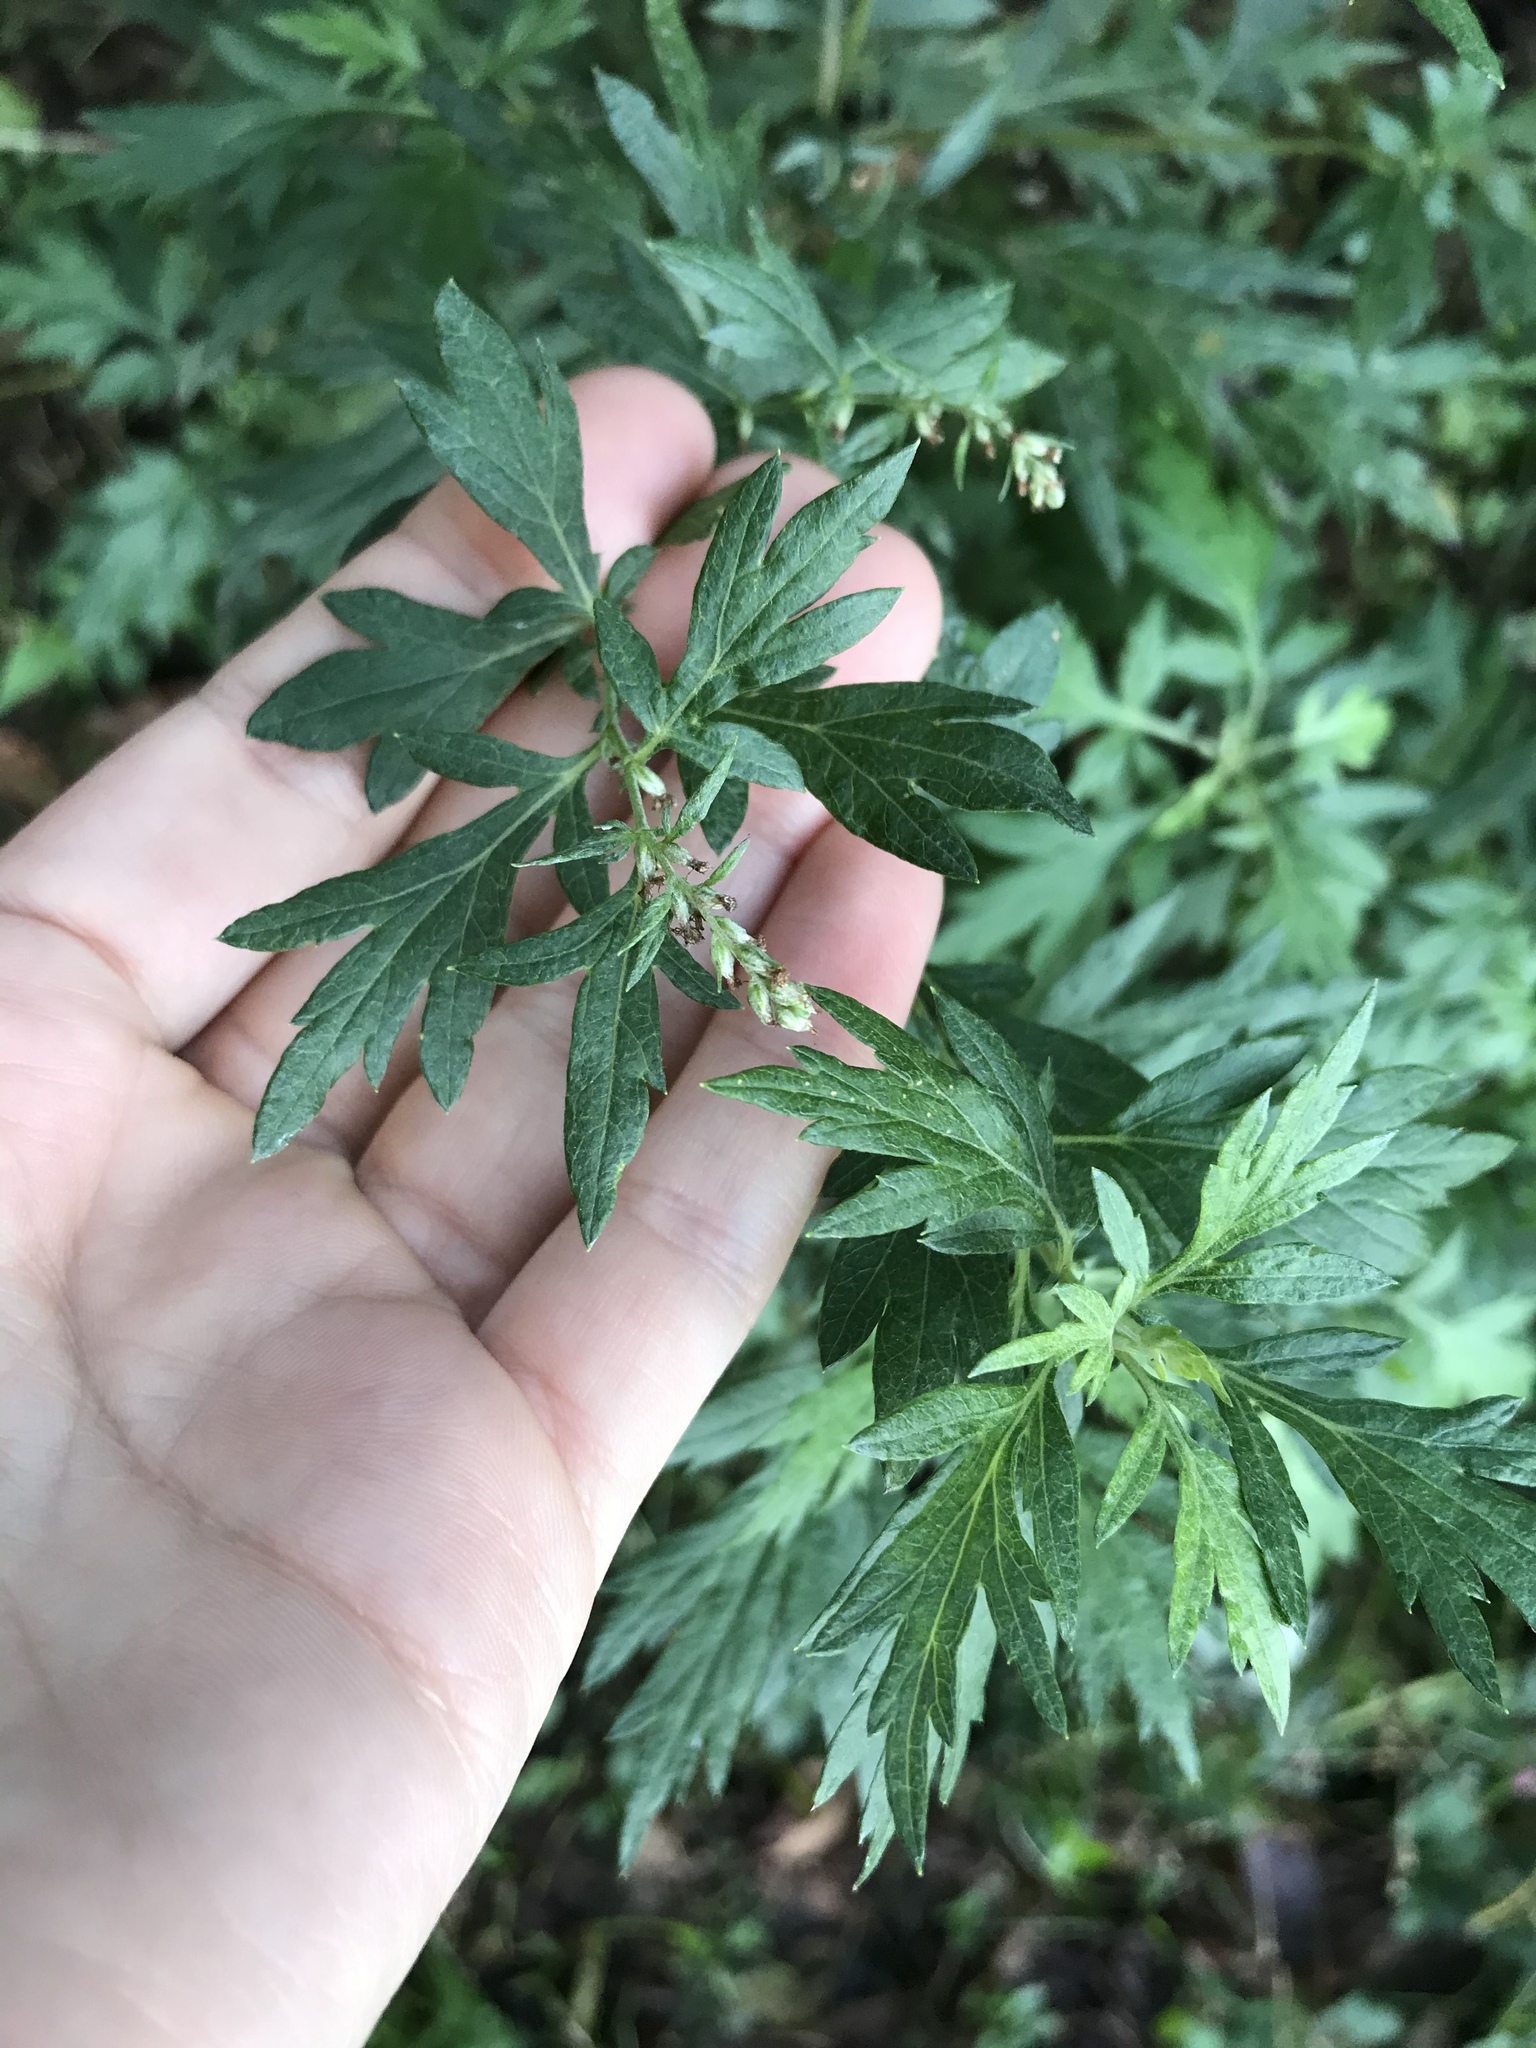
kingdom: Plantae
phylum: Tracheophyta
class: Magnoliopsida
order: Asterales
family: Asteraceae
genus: Artemisia
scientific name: Artemisia vulgaris
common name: Mugwort
